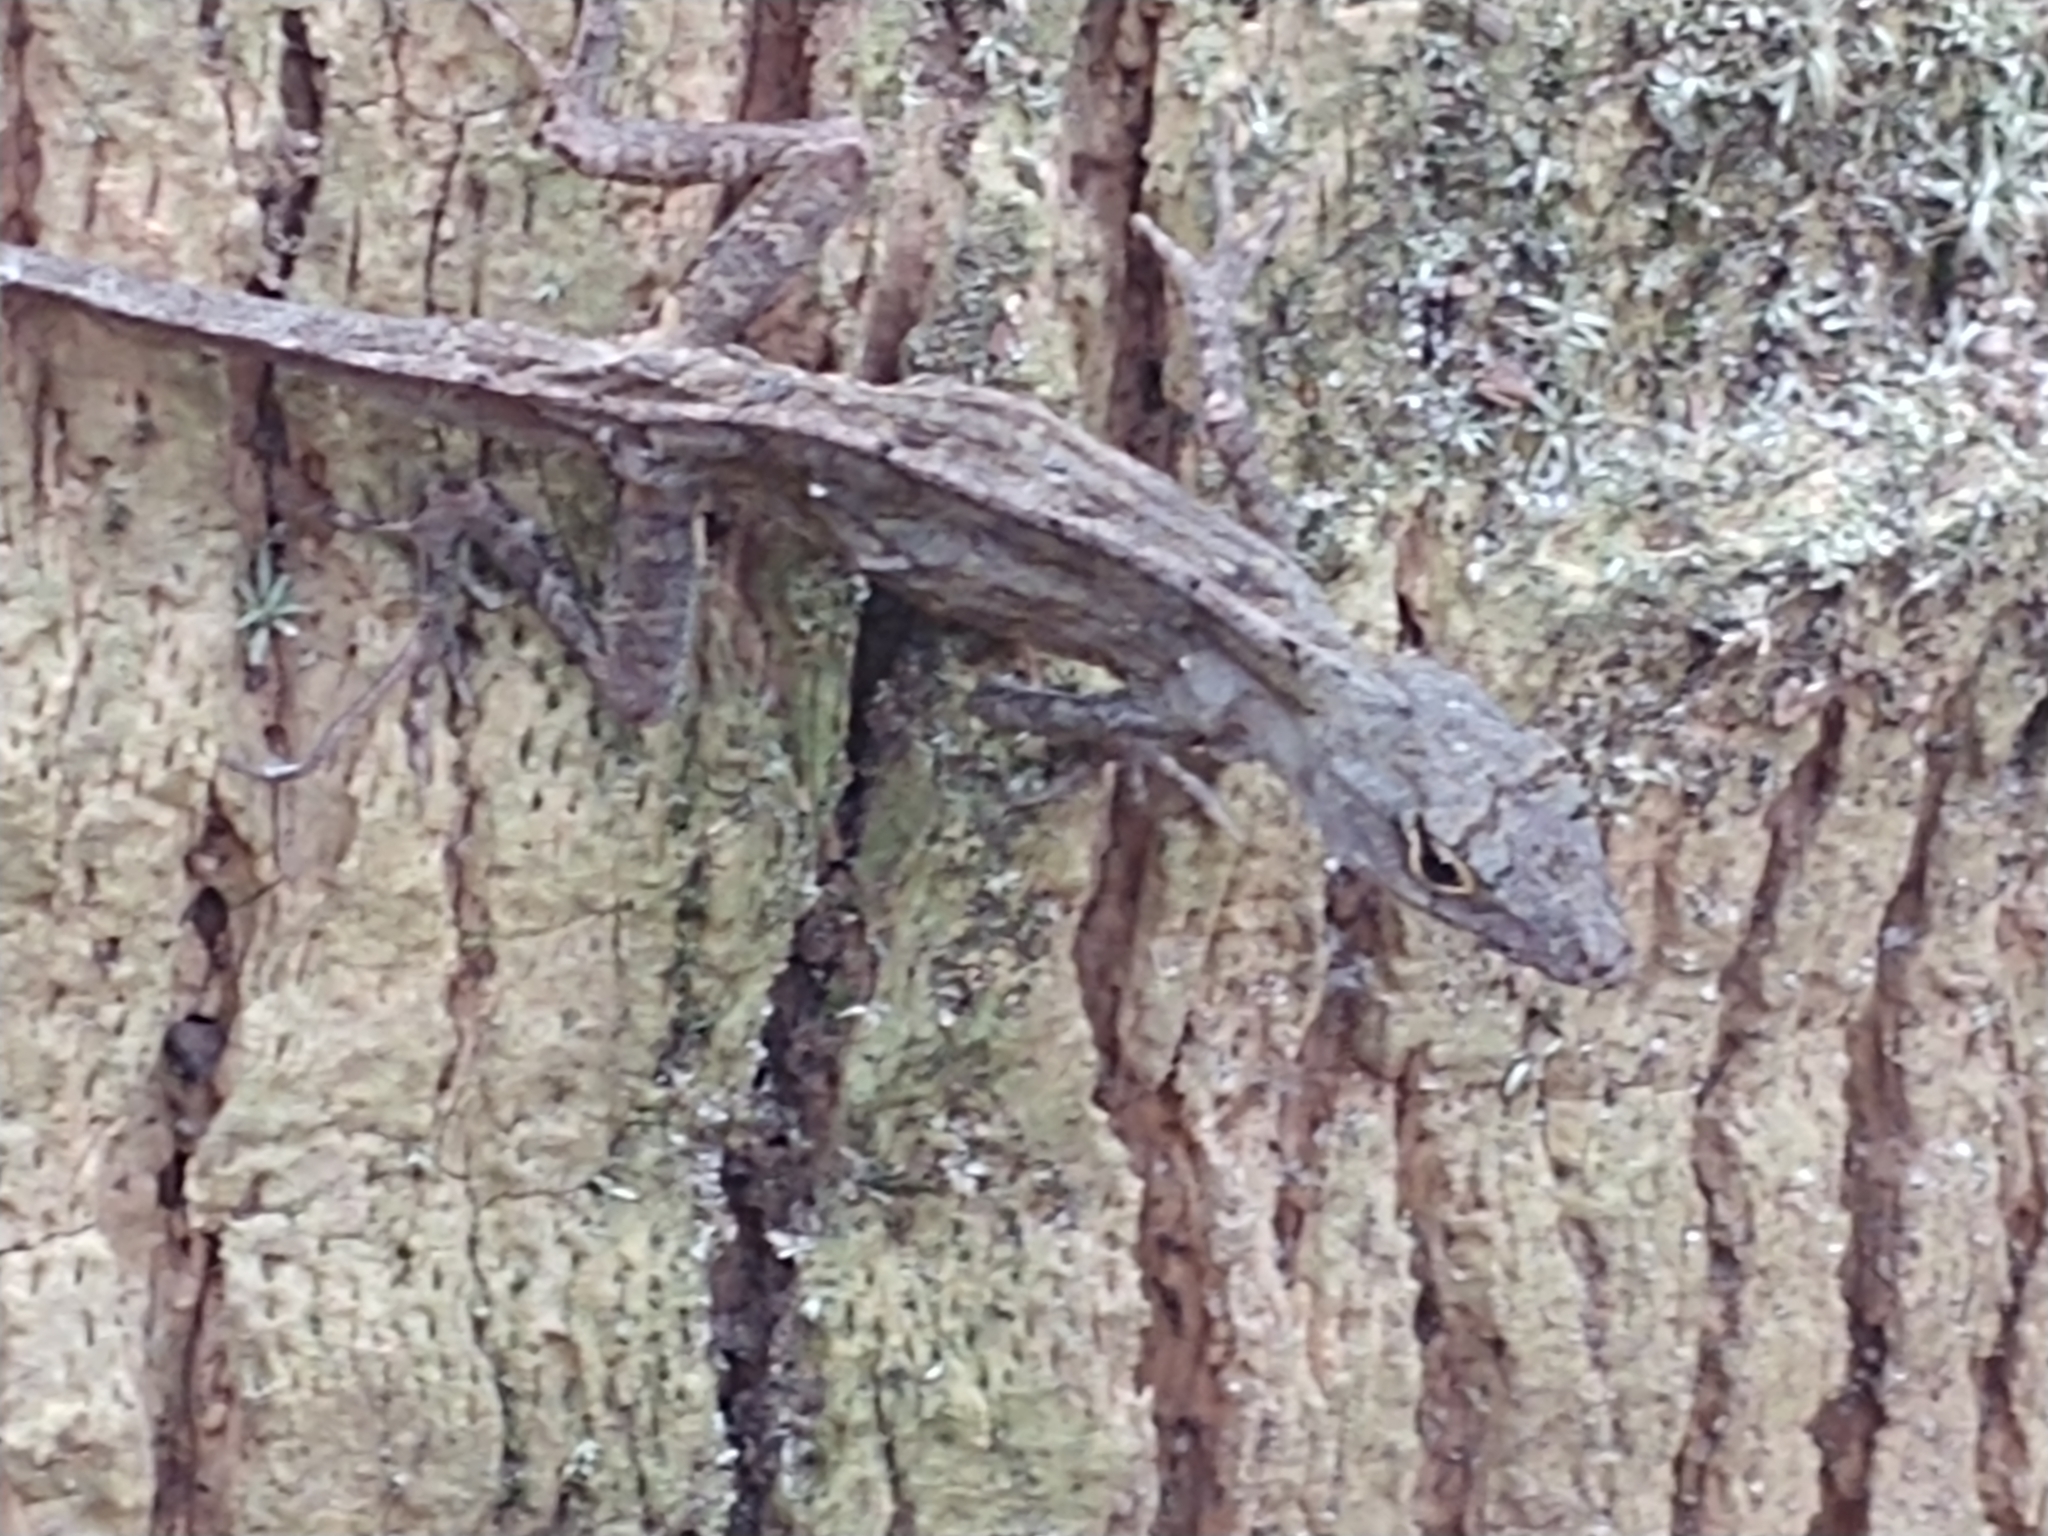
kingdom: Animalia
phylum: Chordata
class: Squamata
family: Dactyloidae
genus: Anolis
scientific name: Anolis sagrei
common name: Brown anole
